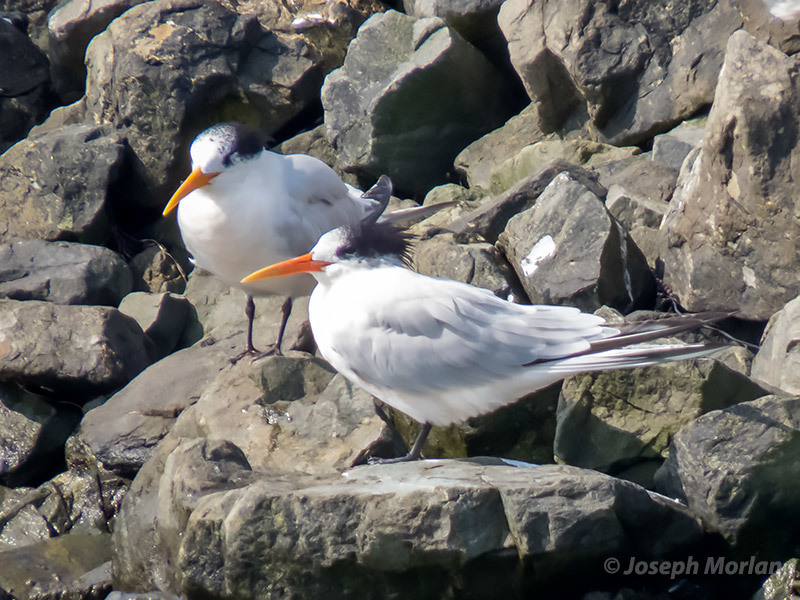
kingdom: Animalia
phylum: Chordata
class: Aves
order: Charadriiformes
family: Laridae
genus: Thalasseus
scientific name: Thalasseus elegans
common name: Elegant tern
